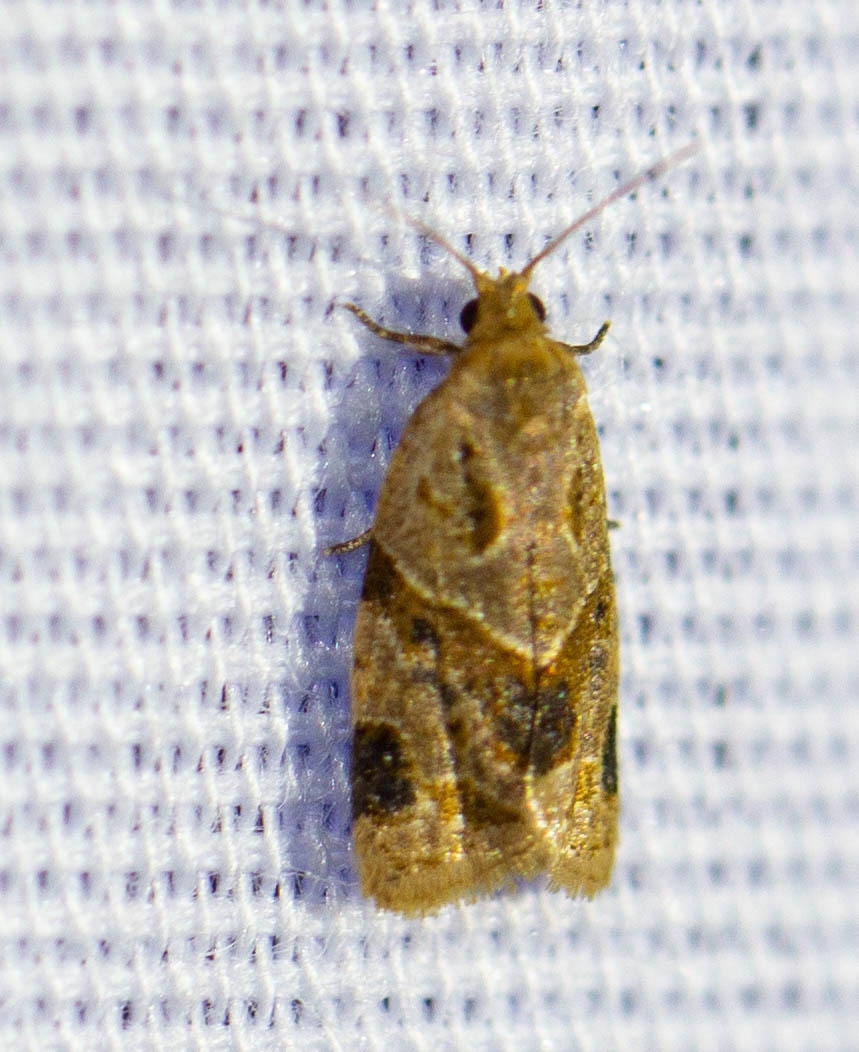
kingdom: Animalia
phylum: Arthropoda
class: Insecta
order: Lepidoptera
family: Tortricidae
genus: Clepsis
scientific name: Clepsis peritana
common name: Garden tortrix
